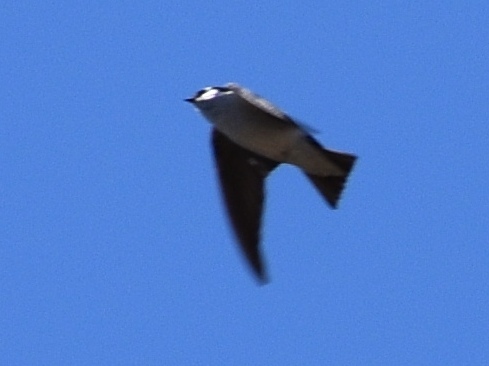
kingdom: Animalia
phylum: Chordata
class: Aves
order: Passeriformes
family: Hirundinidae
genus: Tachycineta
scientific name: Tachycineta thalassina
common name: Violet-green swallow
